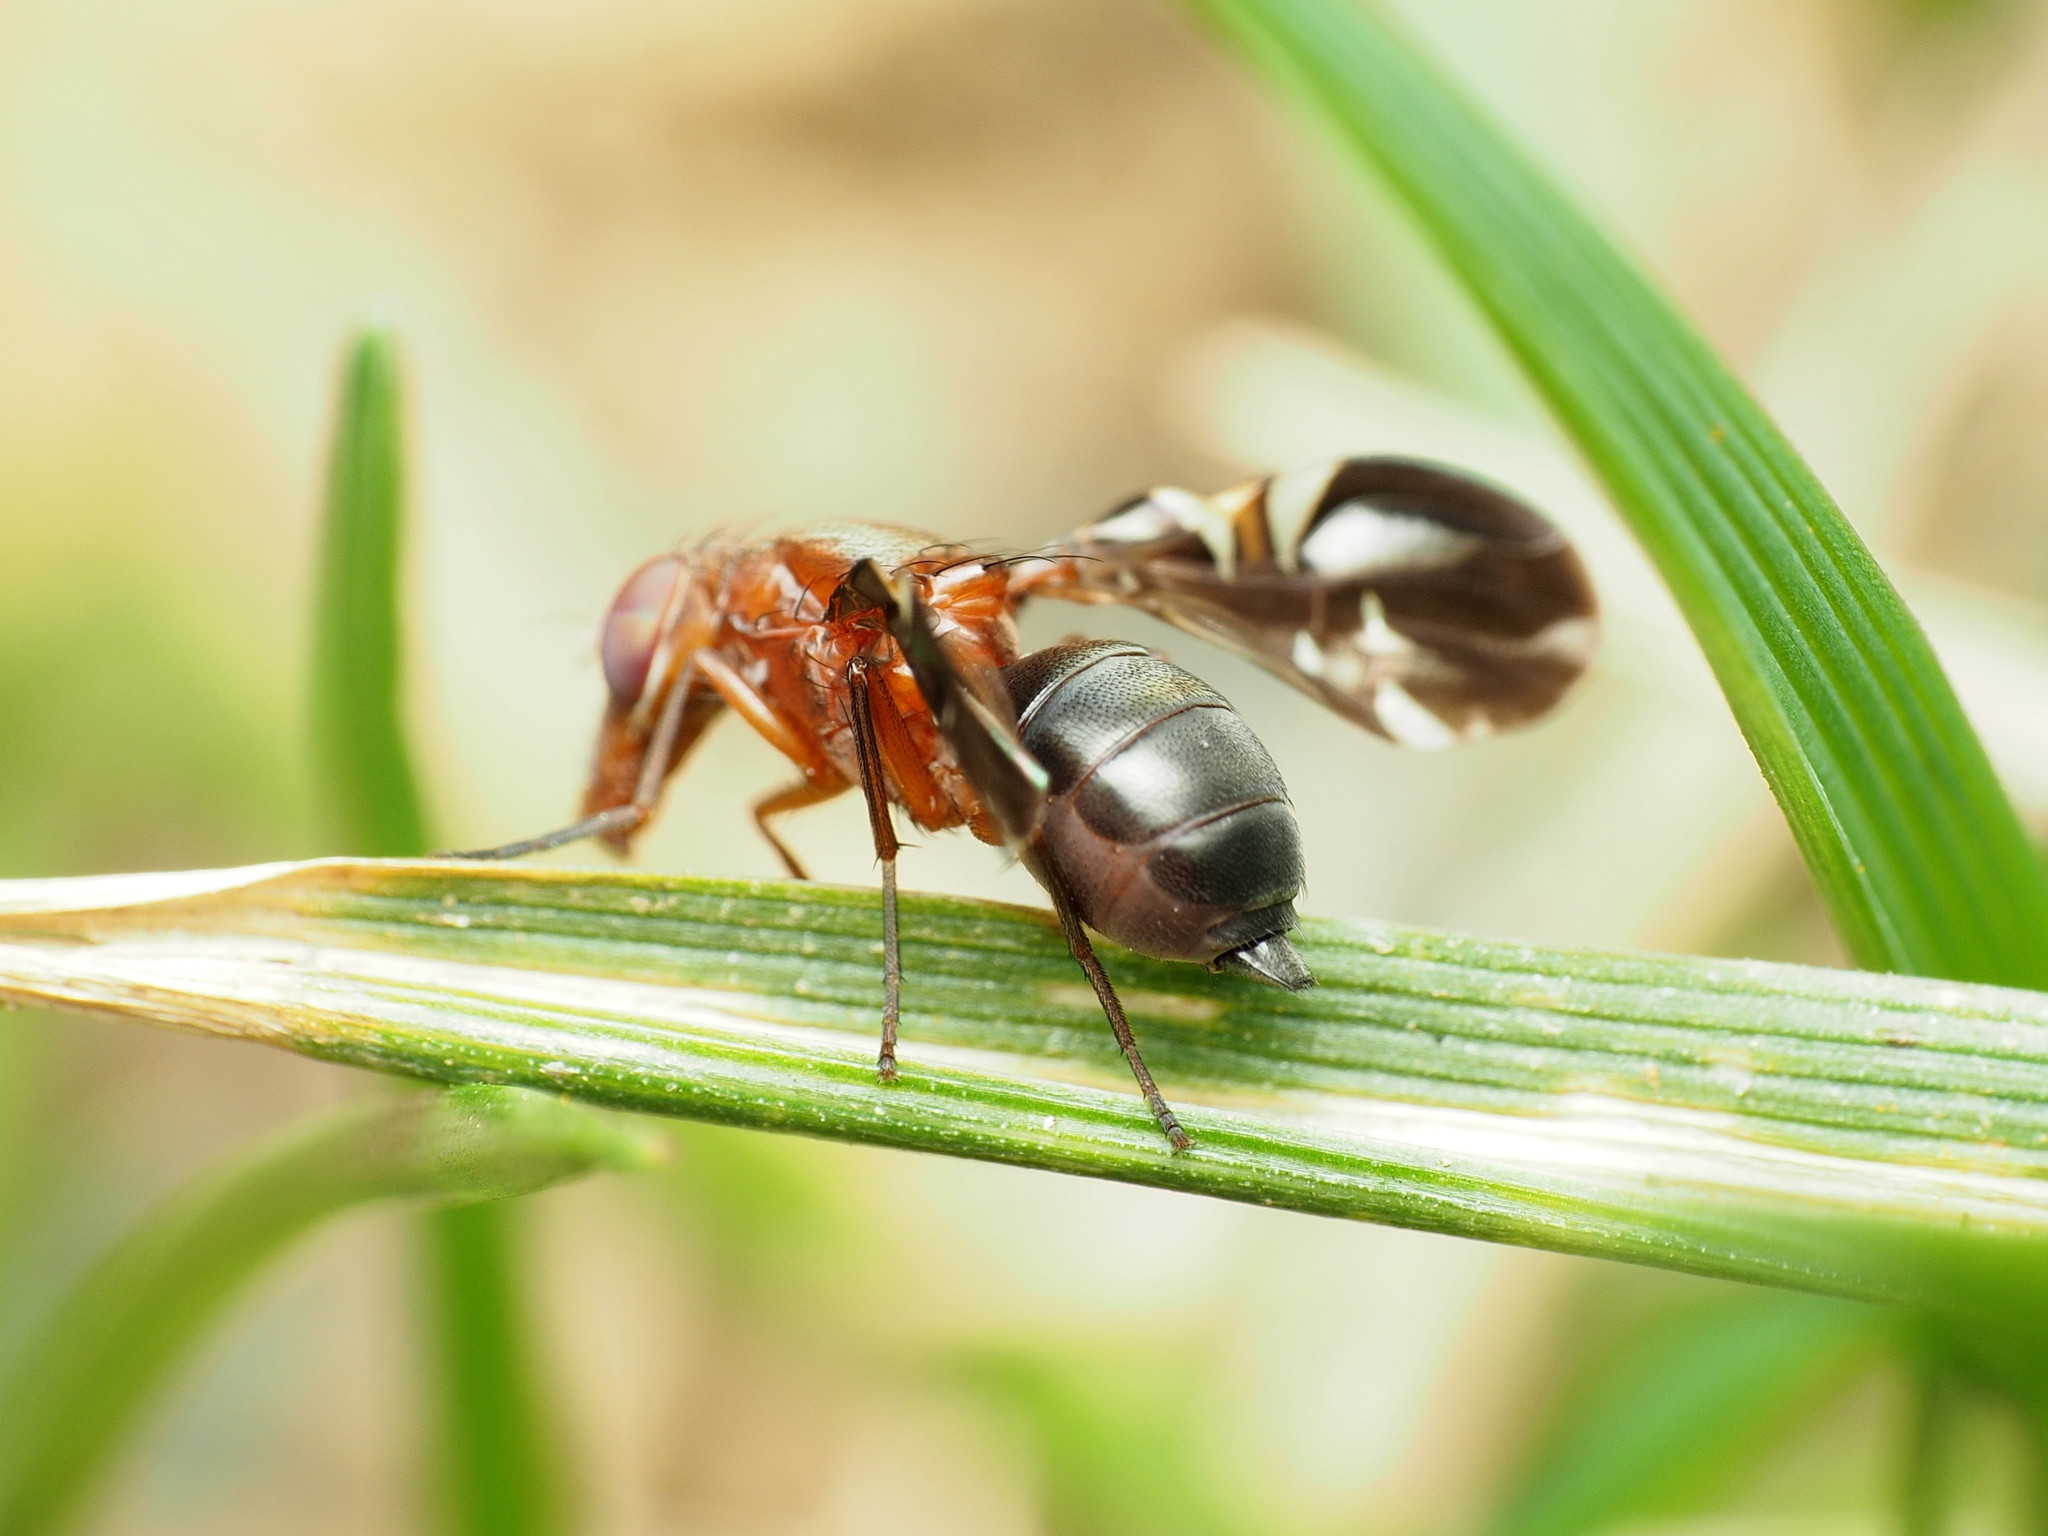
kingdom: Animalia
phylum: Arthropoda
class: Insecta
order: Diptera
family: Ulidiidae
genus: Delphinia
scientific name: Delphinia picta
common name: Common picture-winged fly
